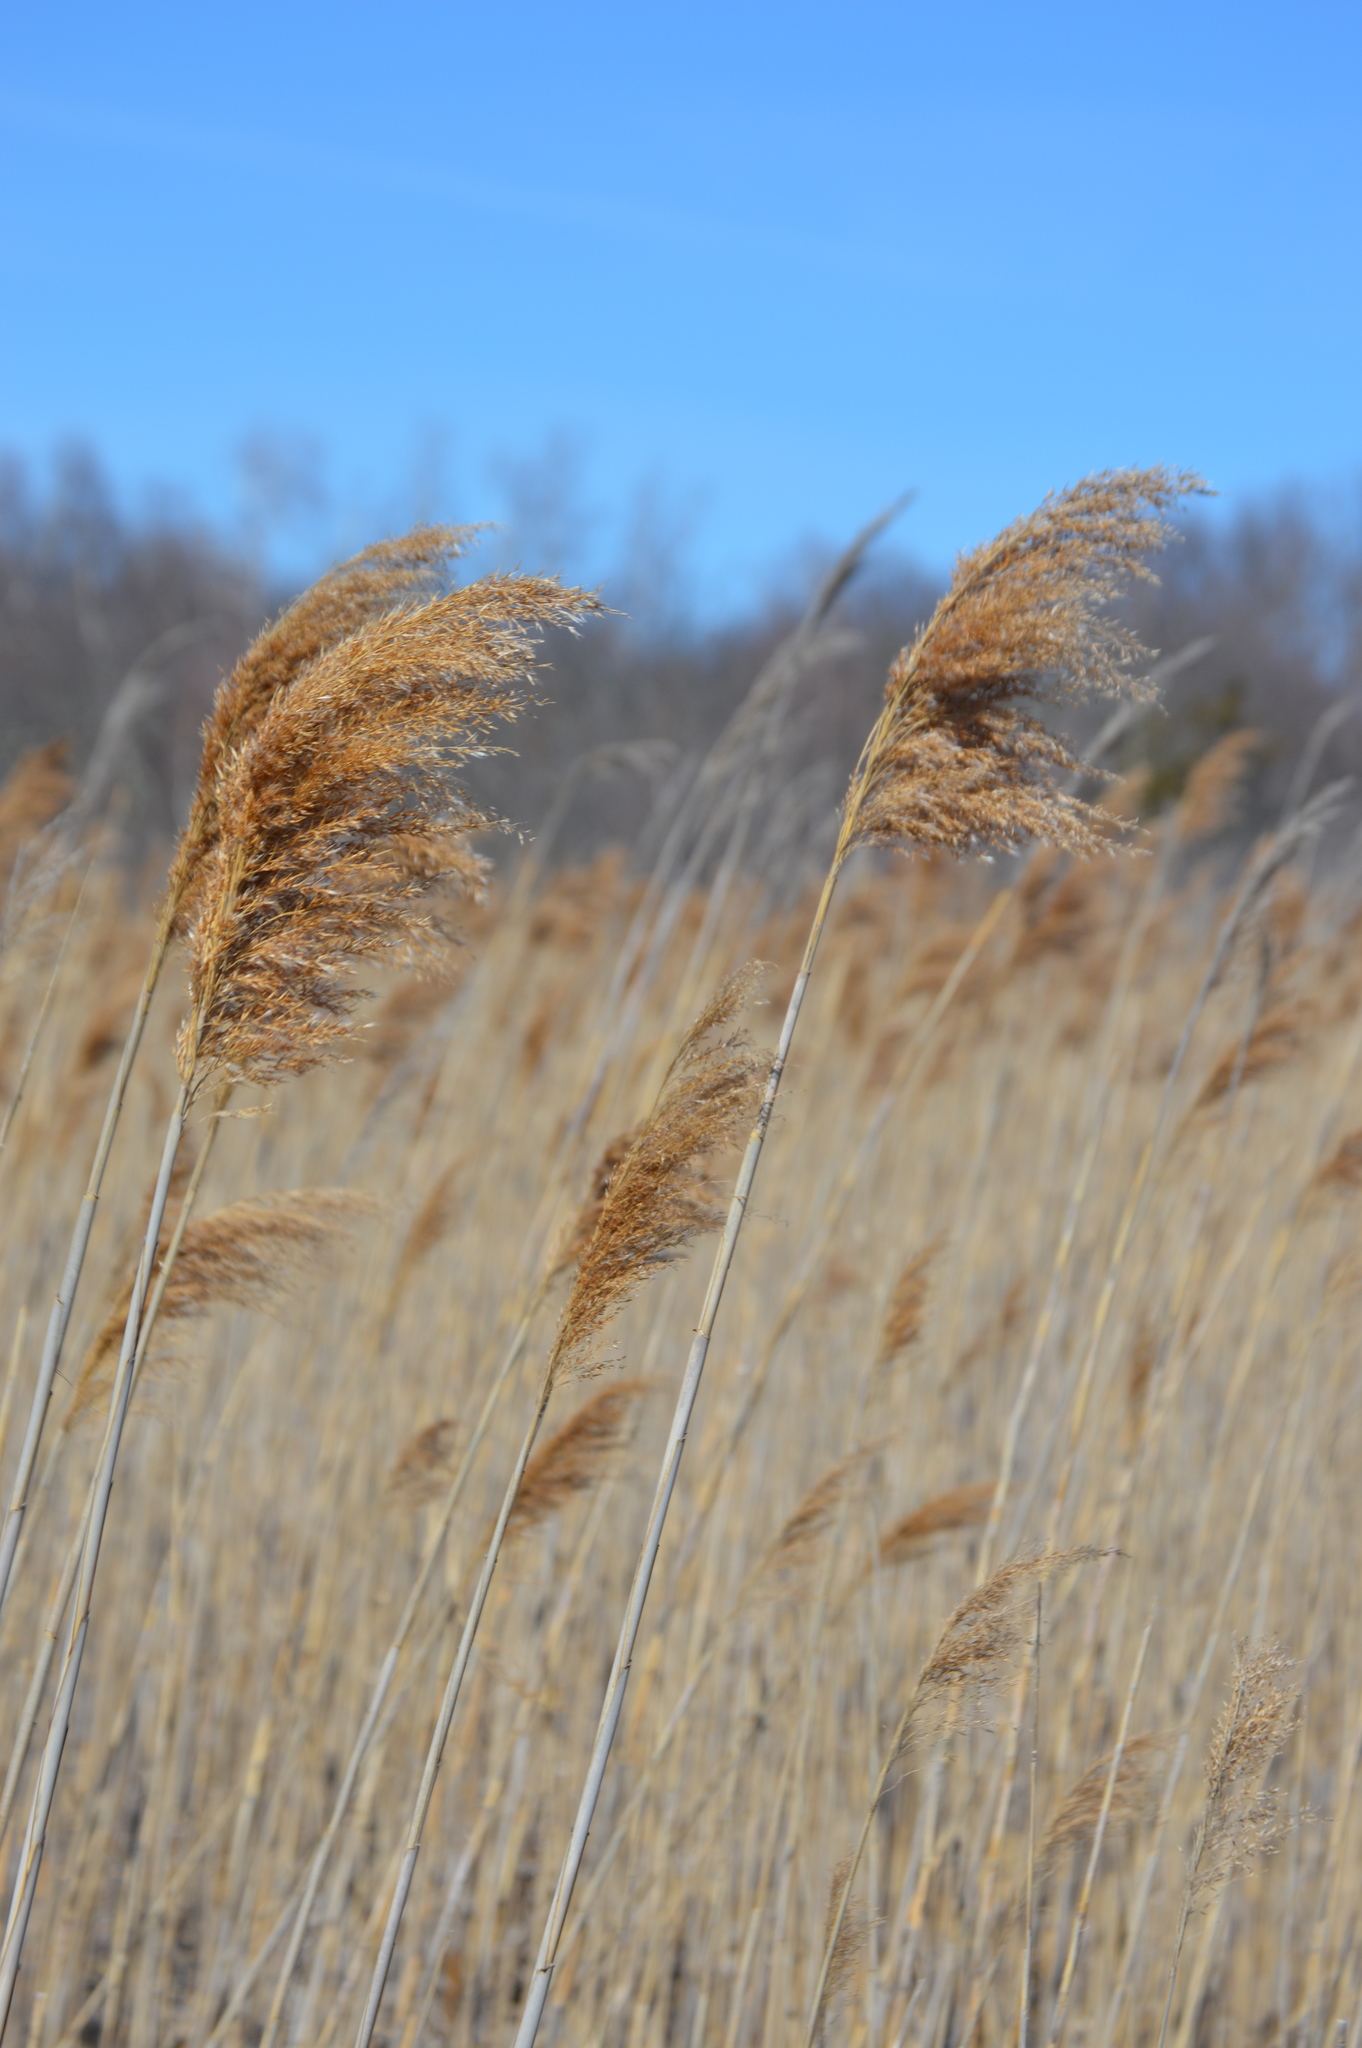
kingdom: Plantae
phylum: Tracheophyta
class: Liliopsida
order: Poales
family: Poaceae
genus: Phragmites
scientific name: Phragmites australis
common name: Common reed
